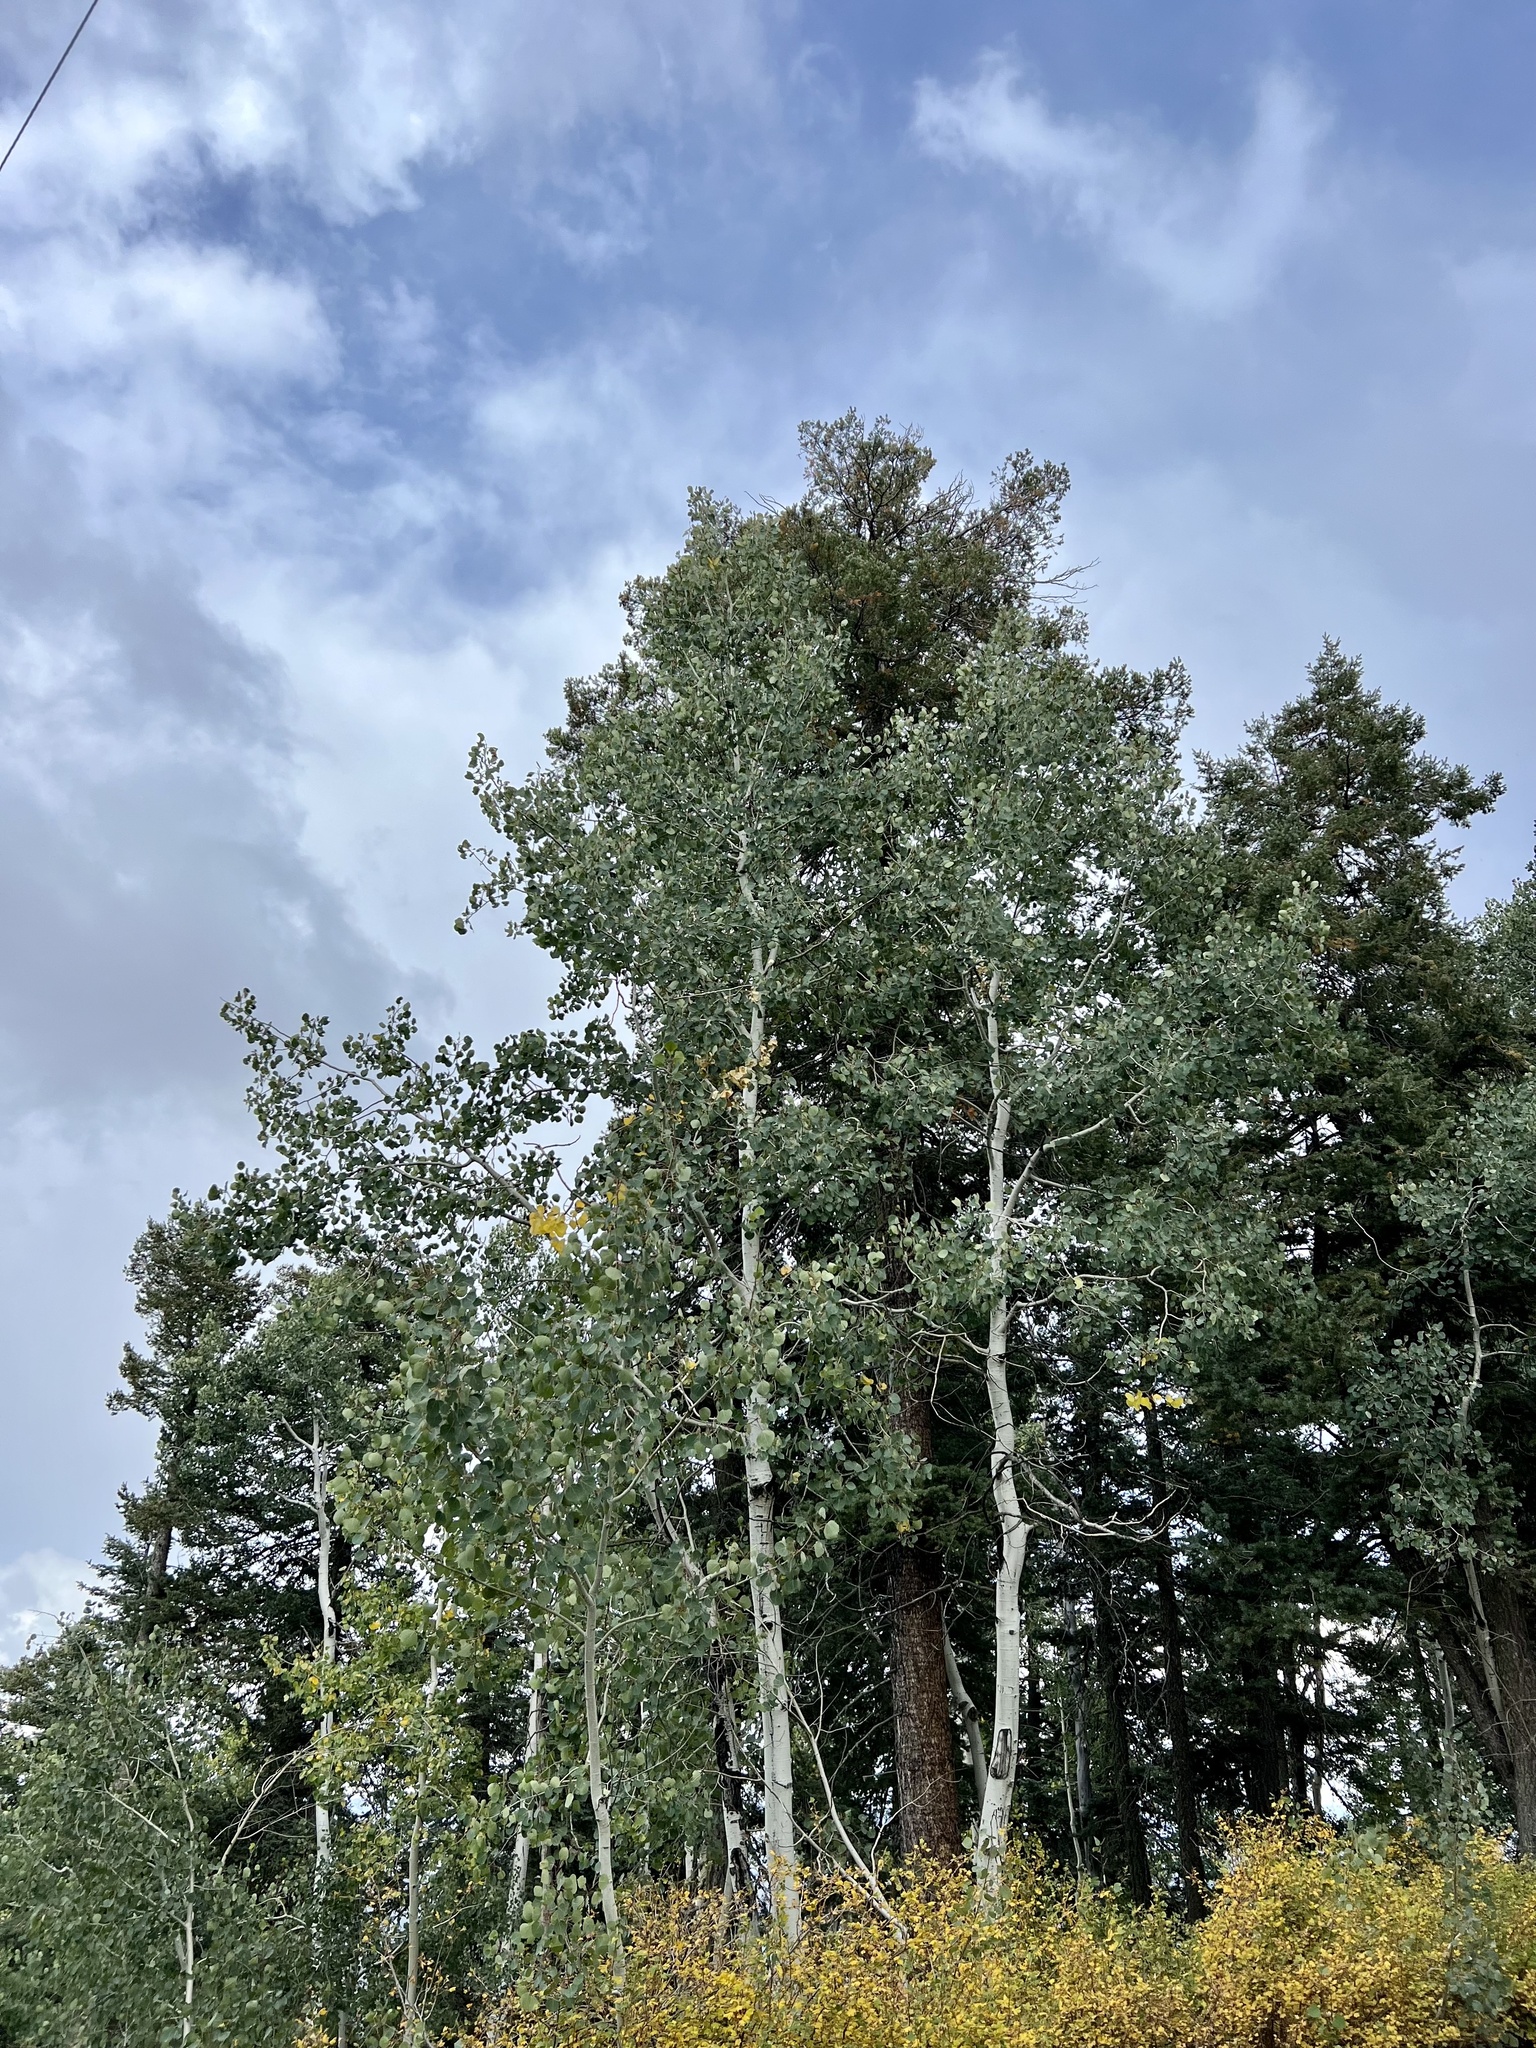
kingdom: Plantae
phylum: Tracheophyta
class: Magnoliopsida
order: Malpighiales
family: Salicaceae
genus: Populus
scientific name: Populus tremuloides
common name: Quaking aspen
